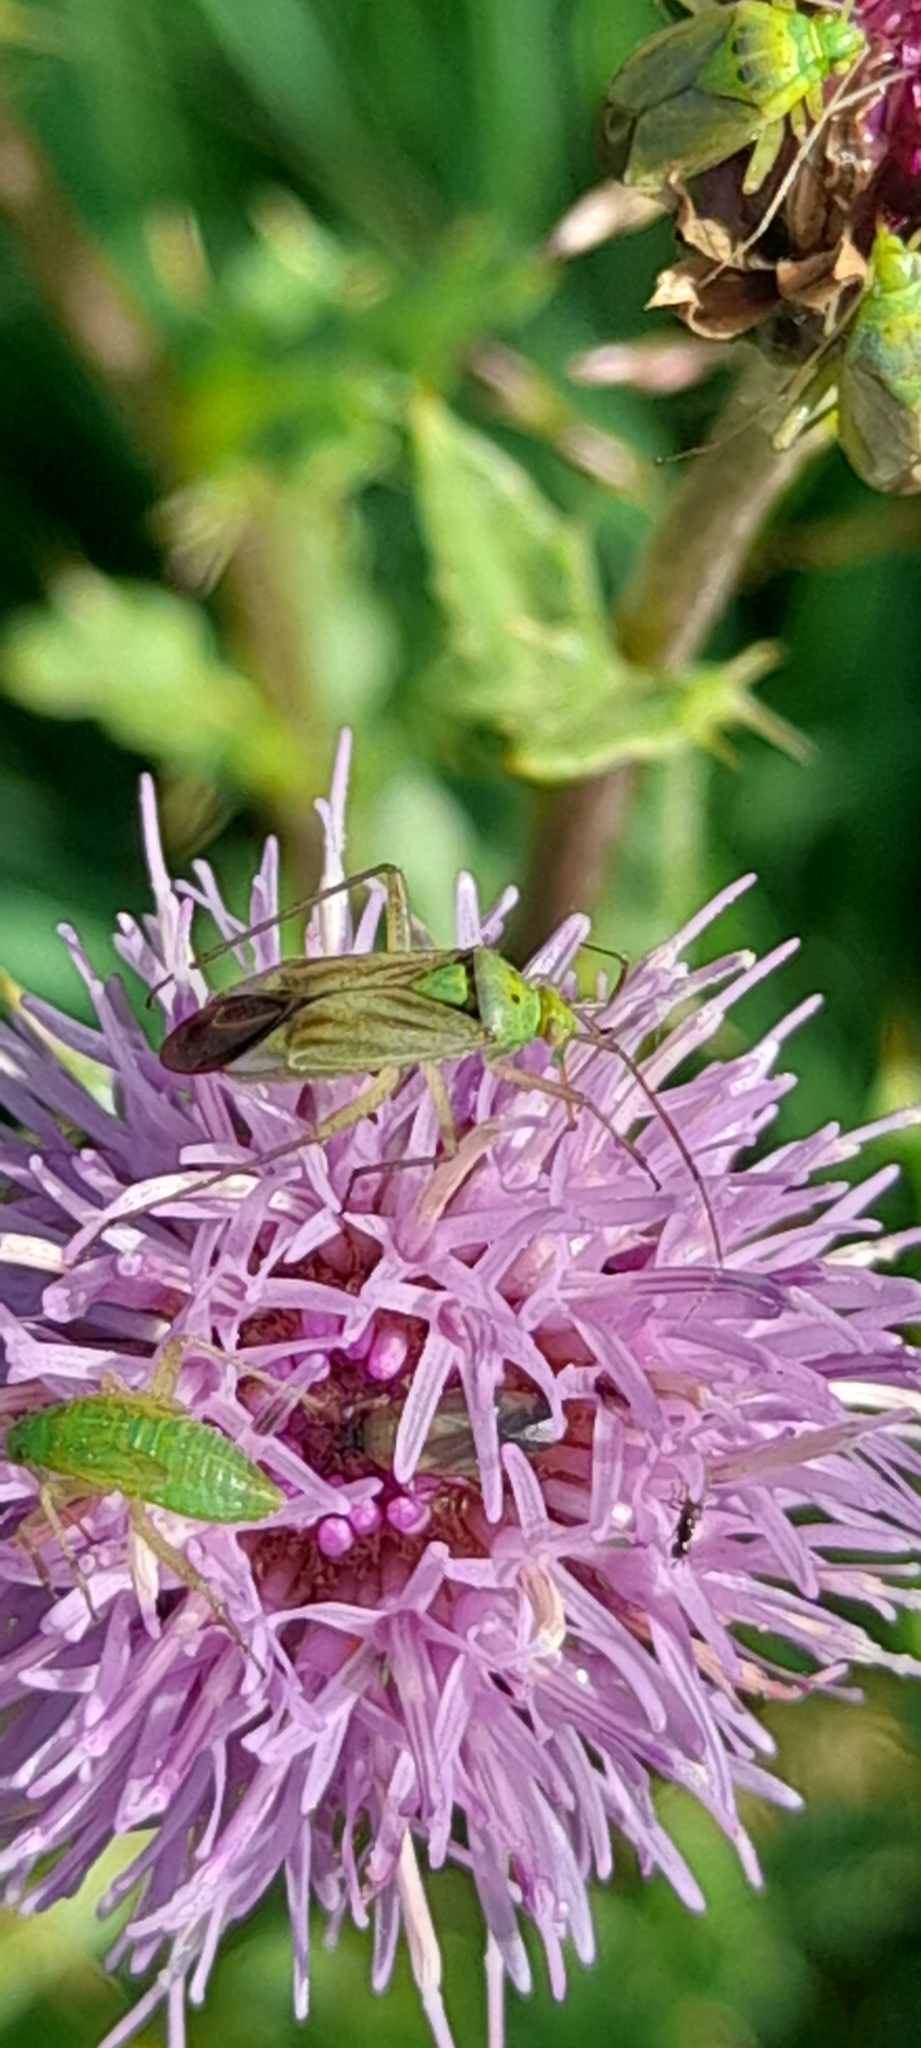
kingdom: Animalia
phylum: Arthropoda
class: Insecta
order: Hemiptera
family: Miridae
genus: Closterotomus
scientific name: Closterotomus norvegicus
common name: Plant bug
